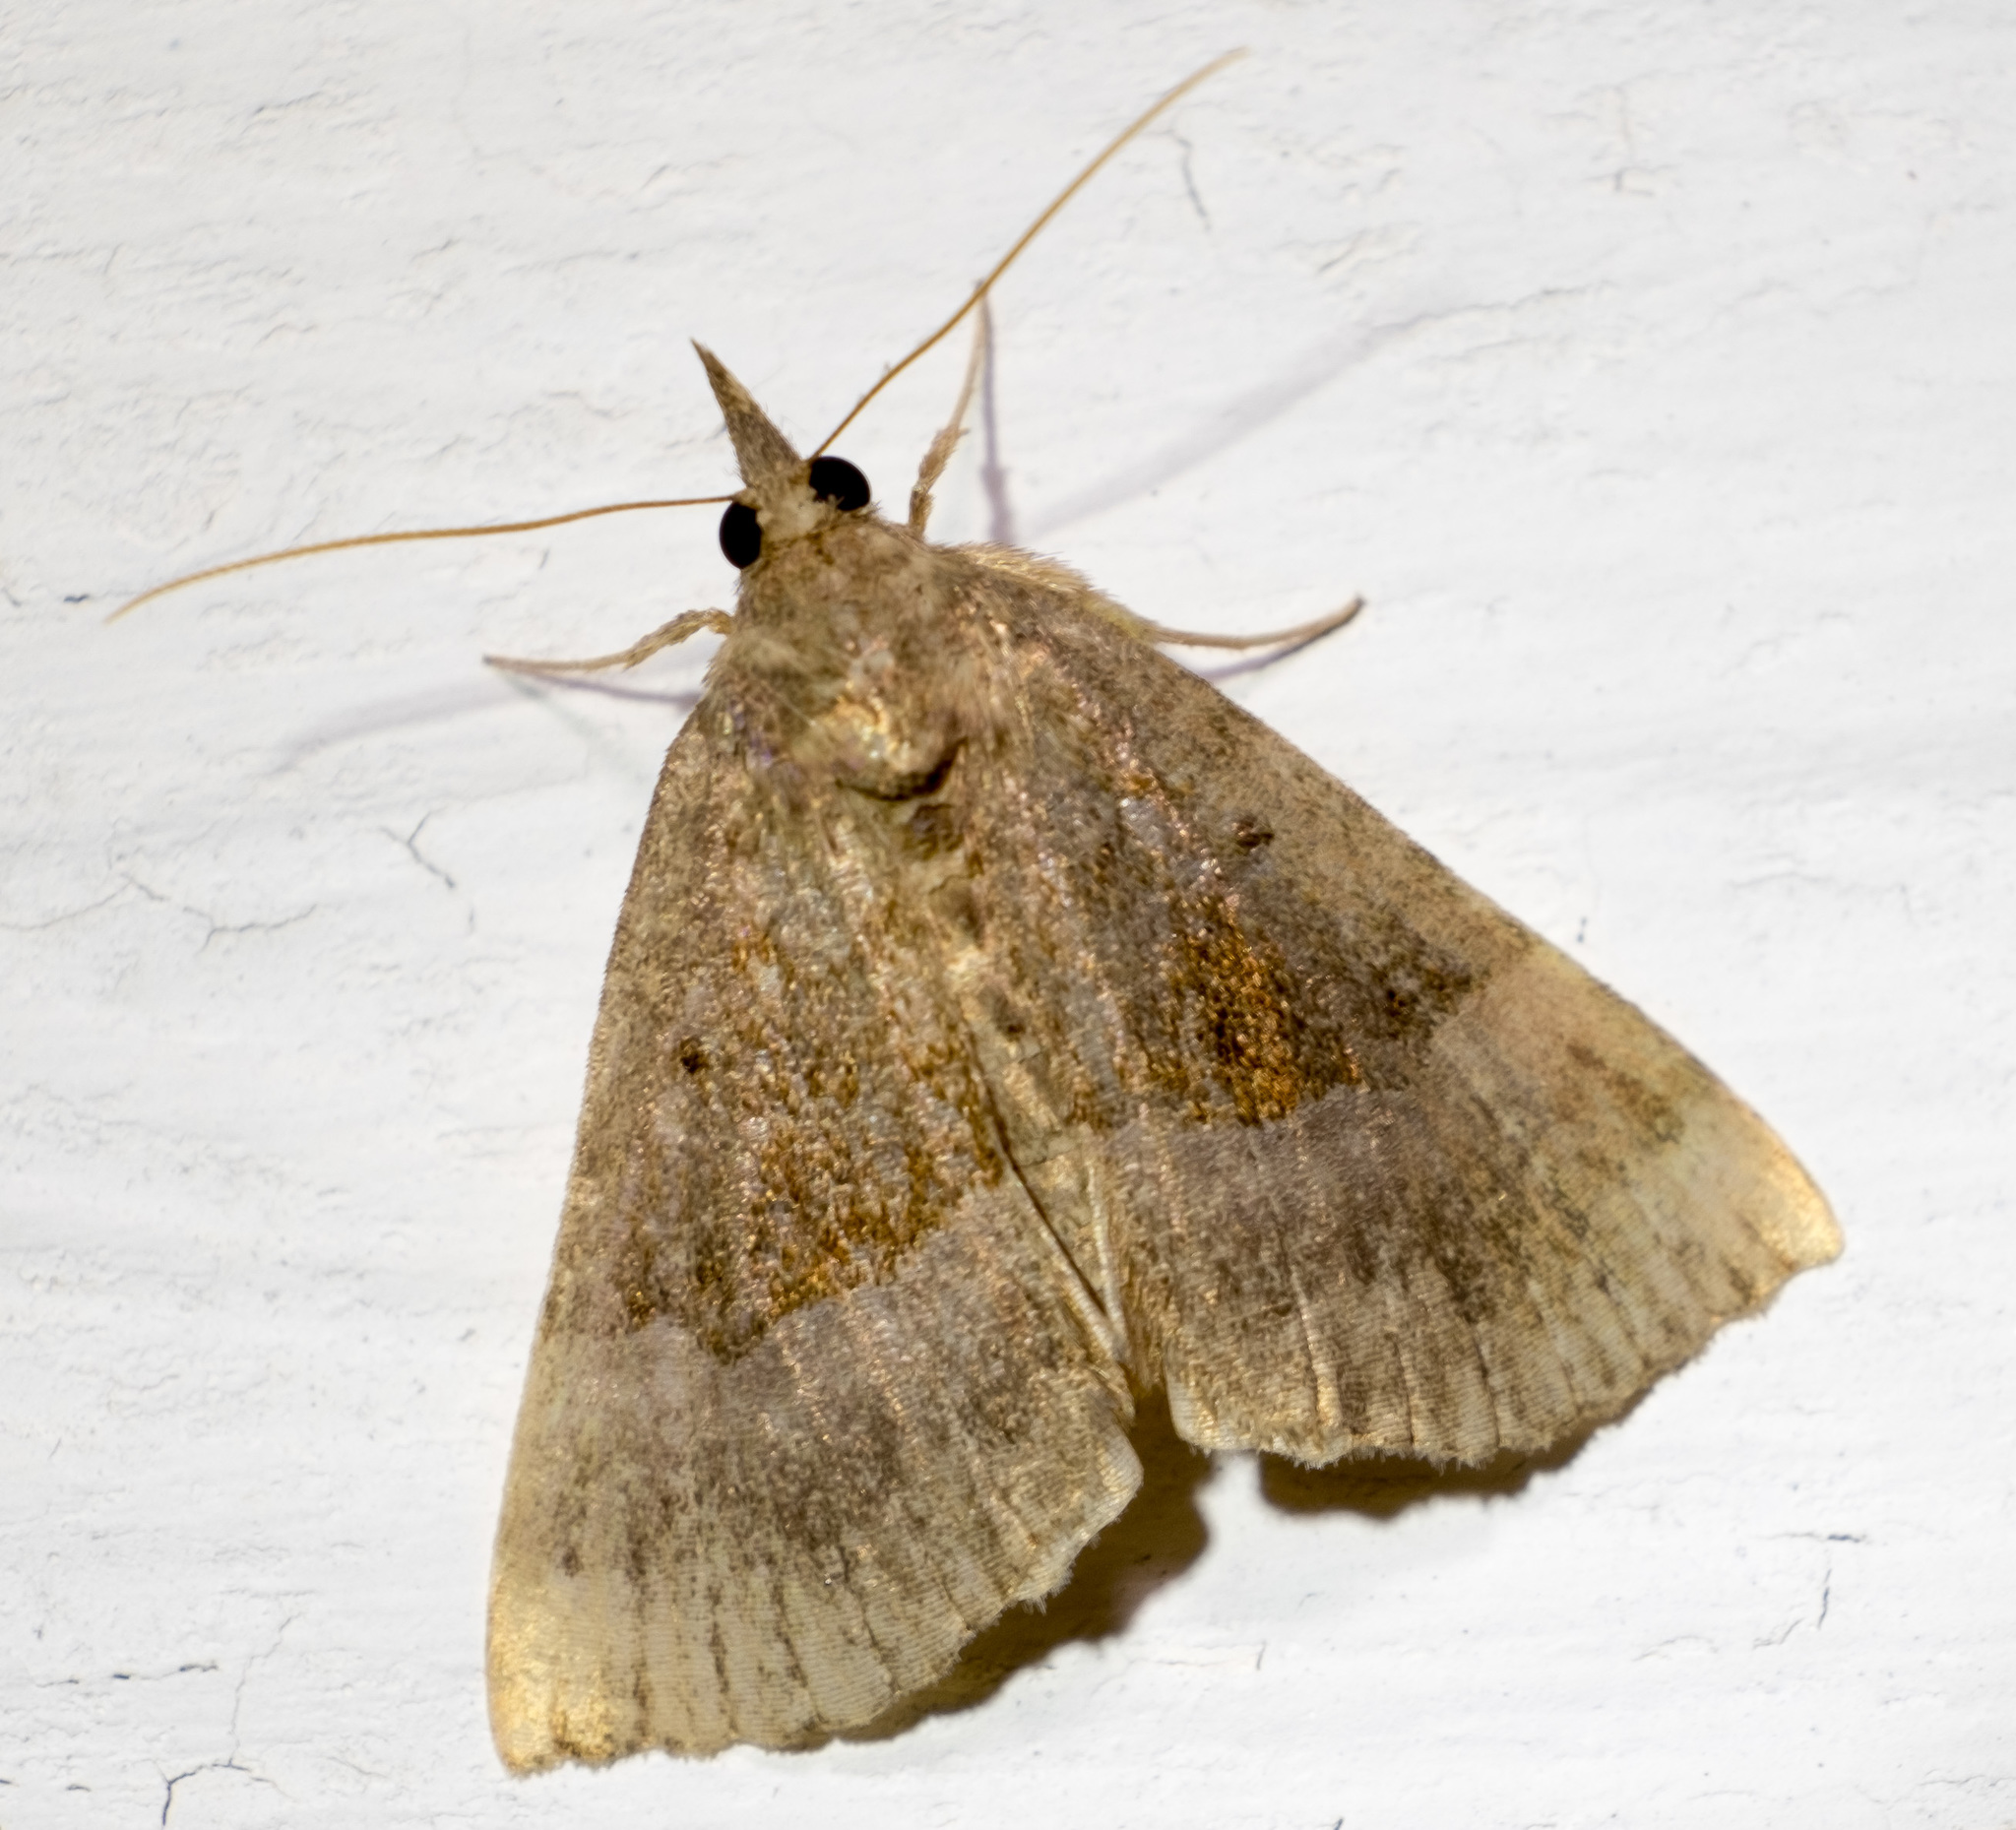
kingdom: Animalia
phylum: Arthropoda
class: Insecta
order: Lepidoptera
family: Erebidae
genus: Hypena
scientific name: Hypena madefactalis
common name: Gray-edged snout
